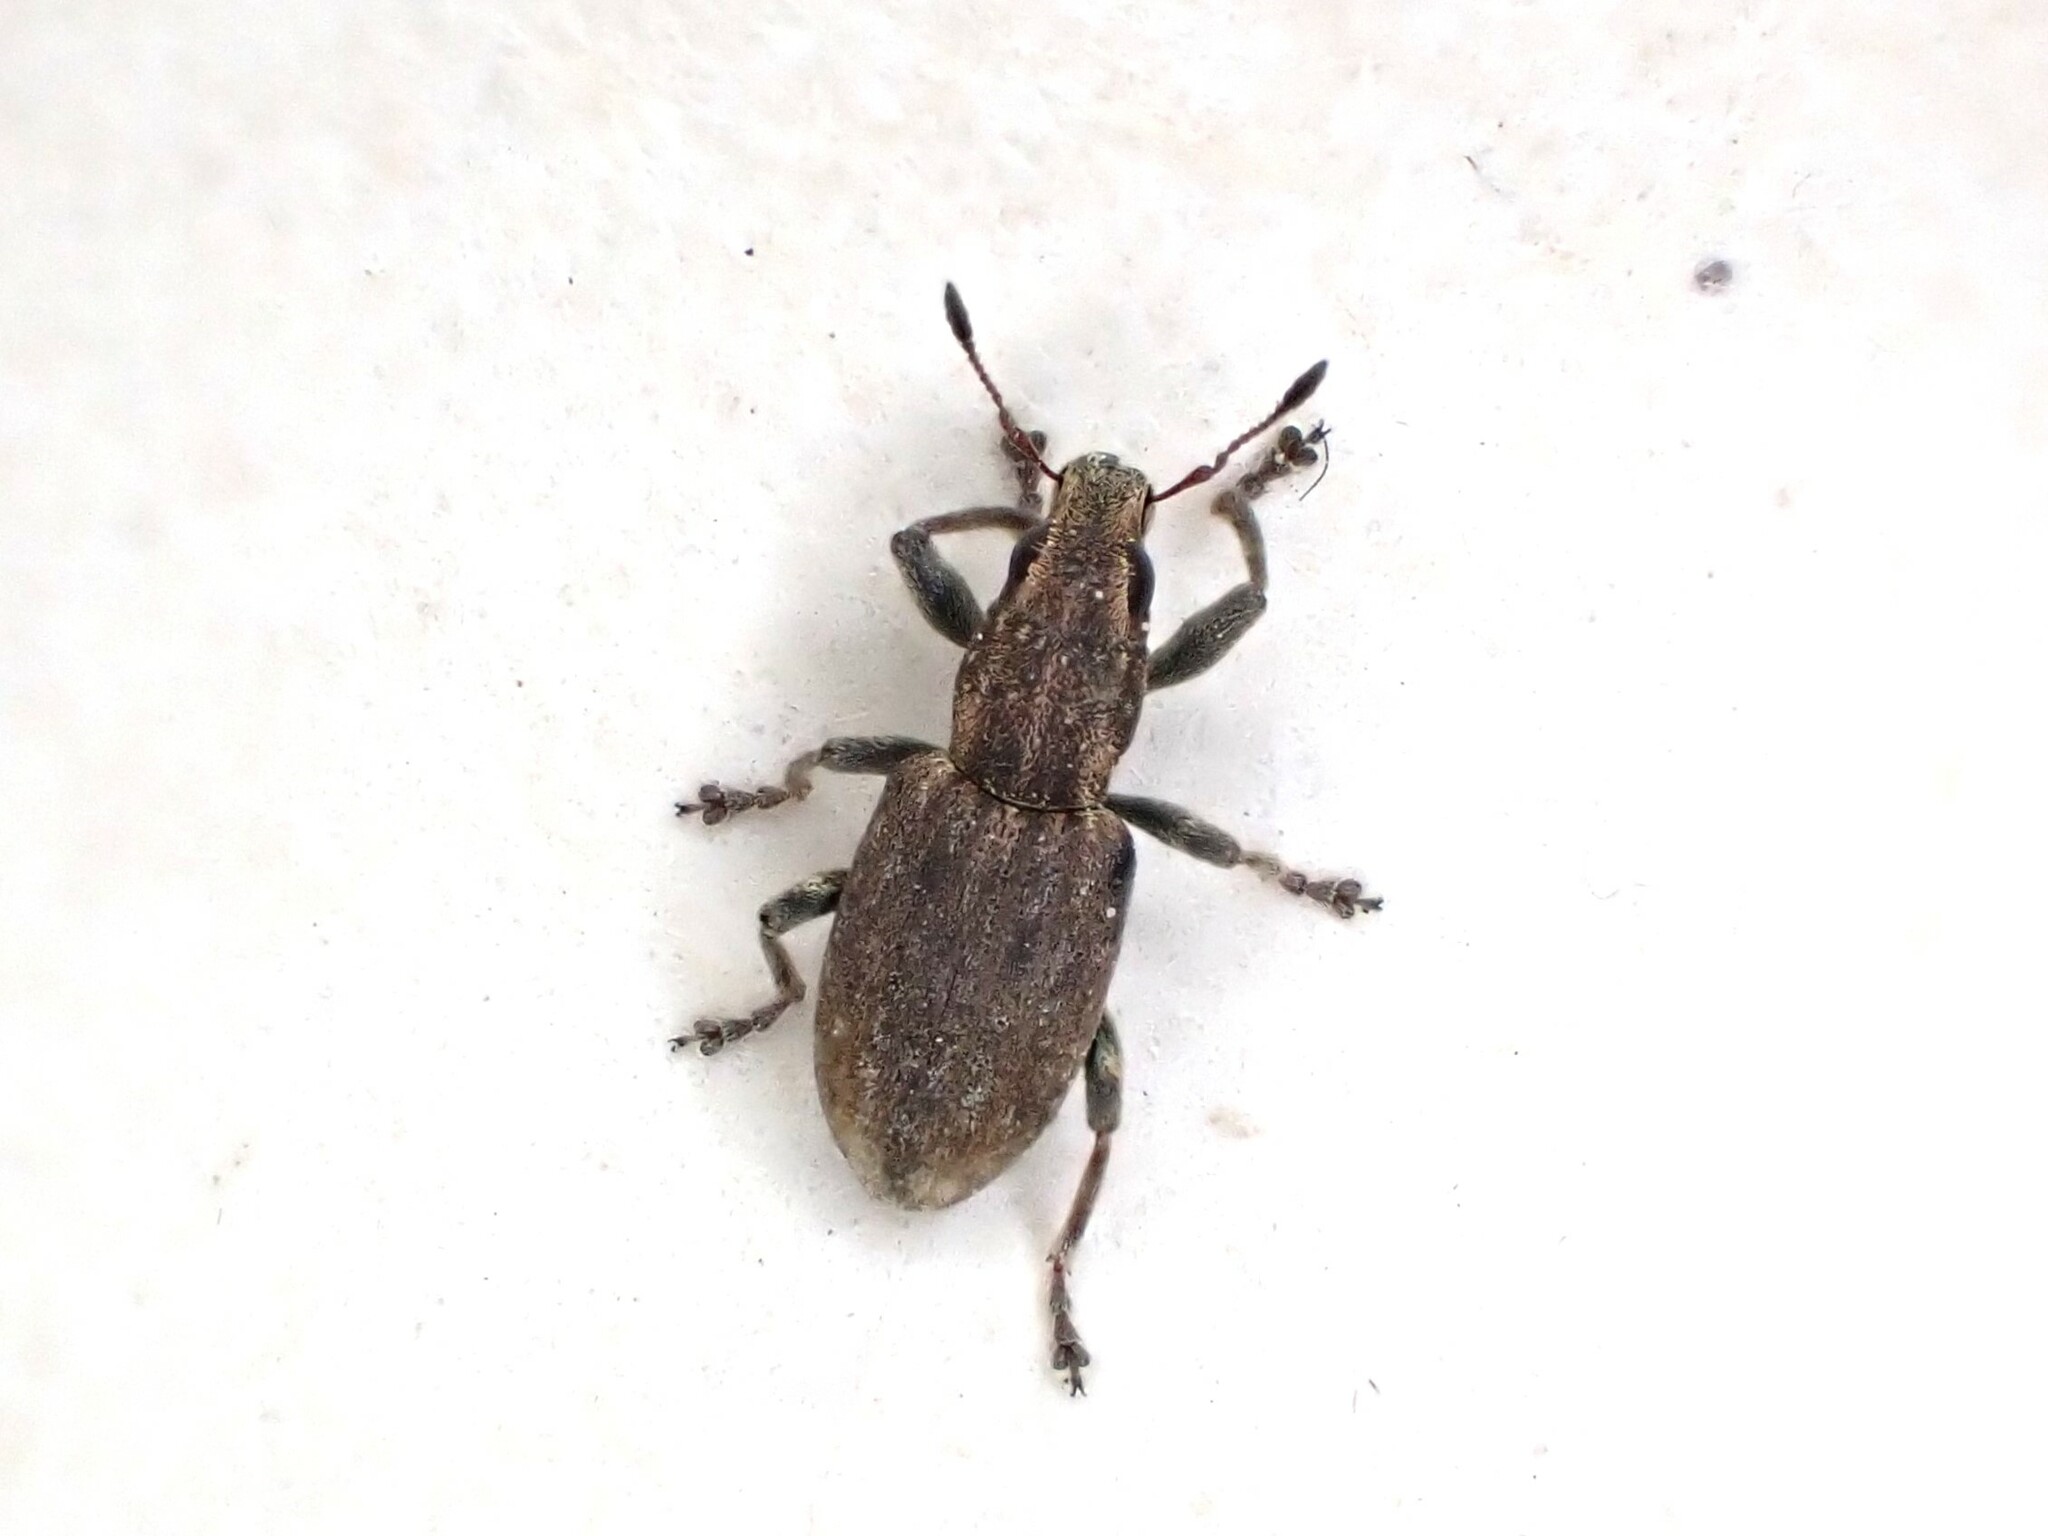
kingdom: Animalia
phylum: Arthropoda
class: Insecta
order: Coleoptera
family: Curculionidae
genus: Sitona
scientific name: Sitona obsoletus
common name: Weevil
